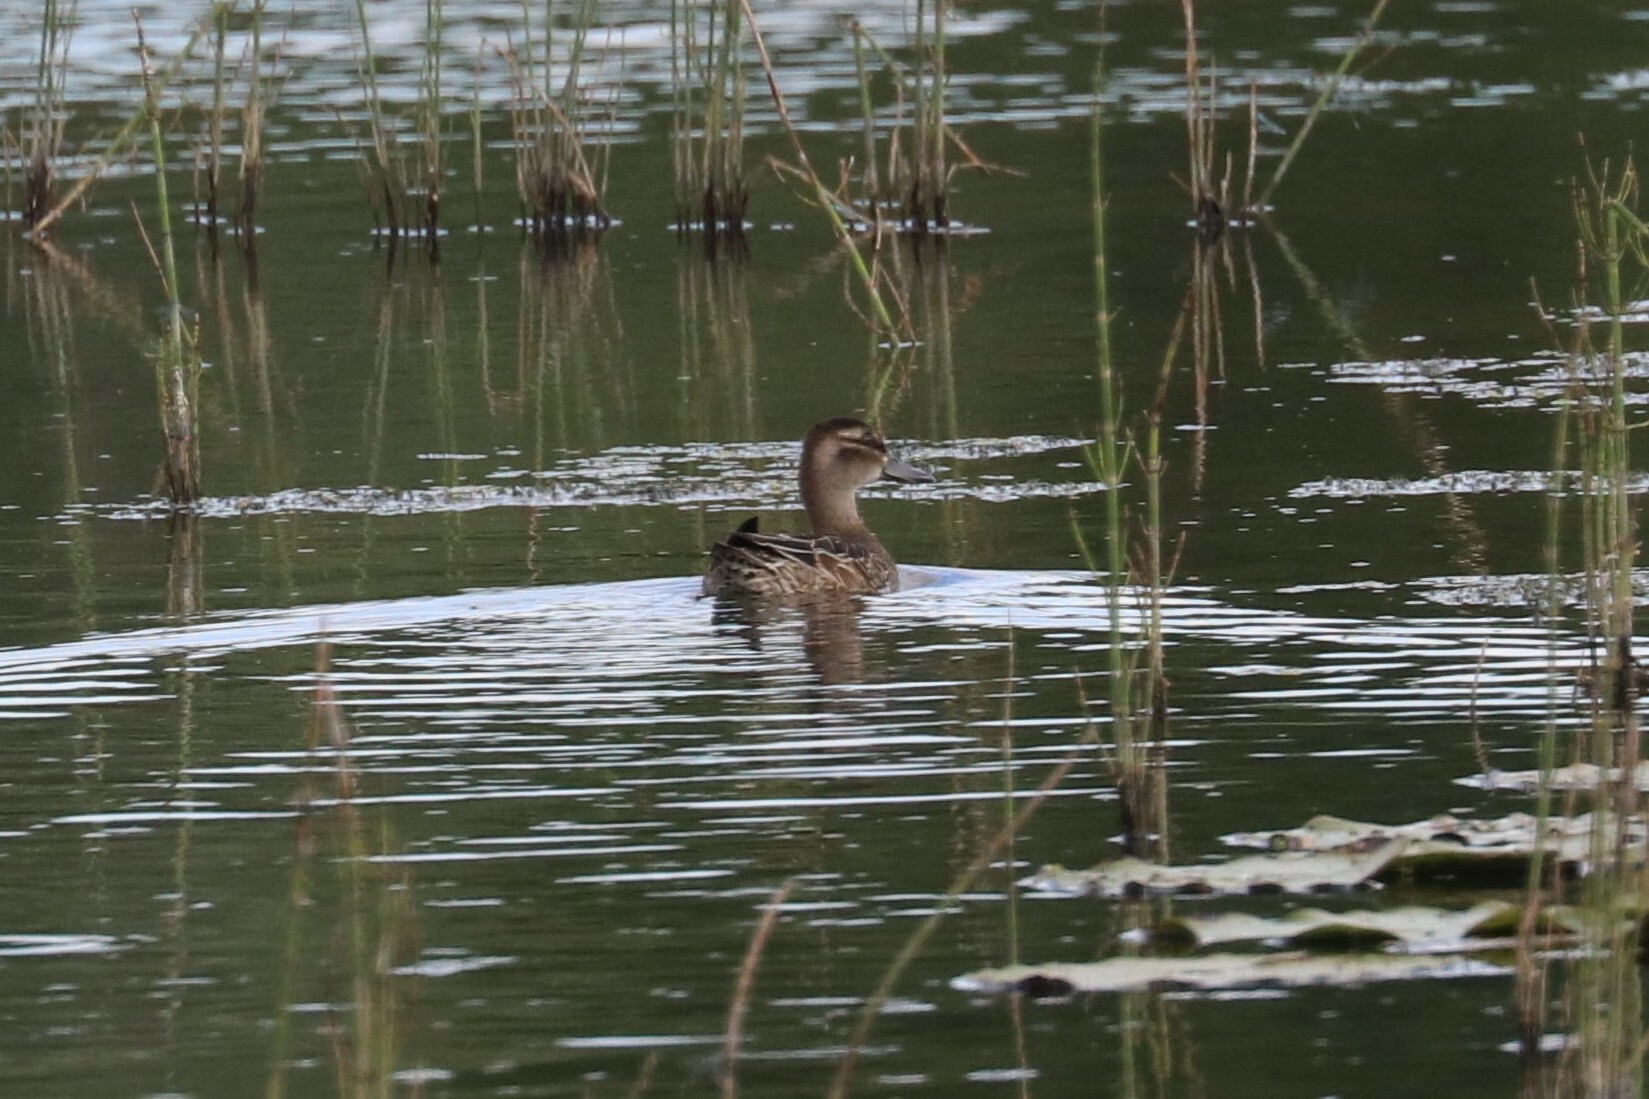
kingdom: Animalia
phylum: Chordata
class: Aves
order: Anseriformes
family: Anatidae
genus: Spatula
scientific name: Spatula querquedula
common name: Garganey
